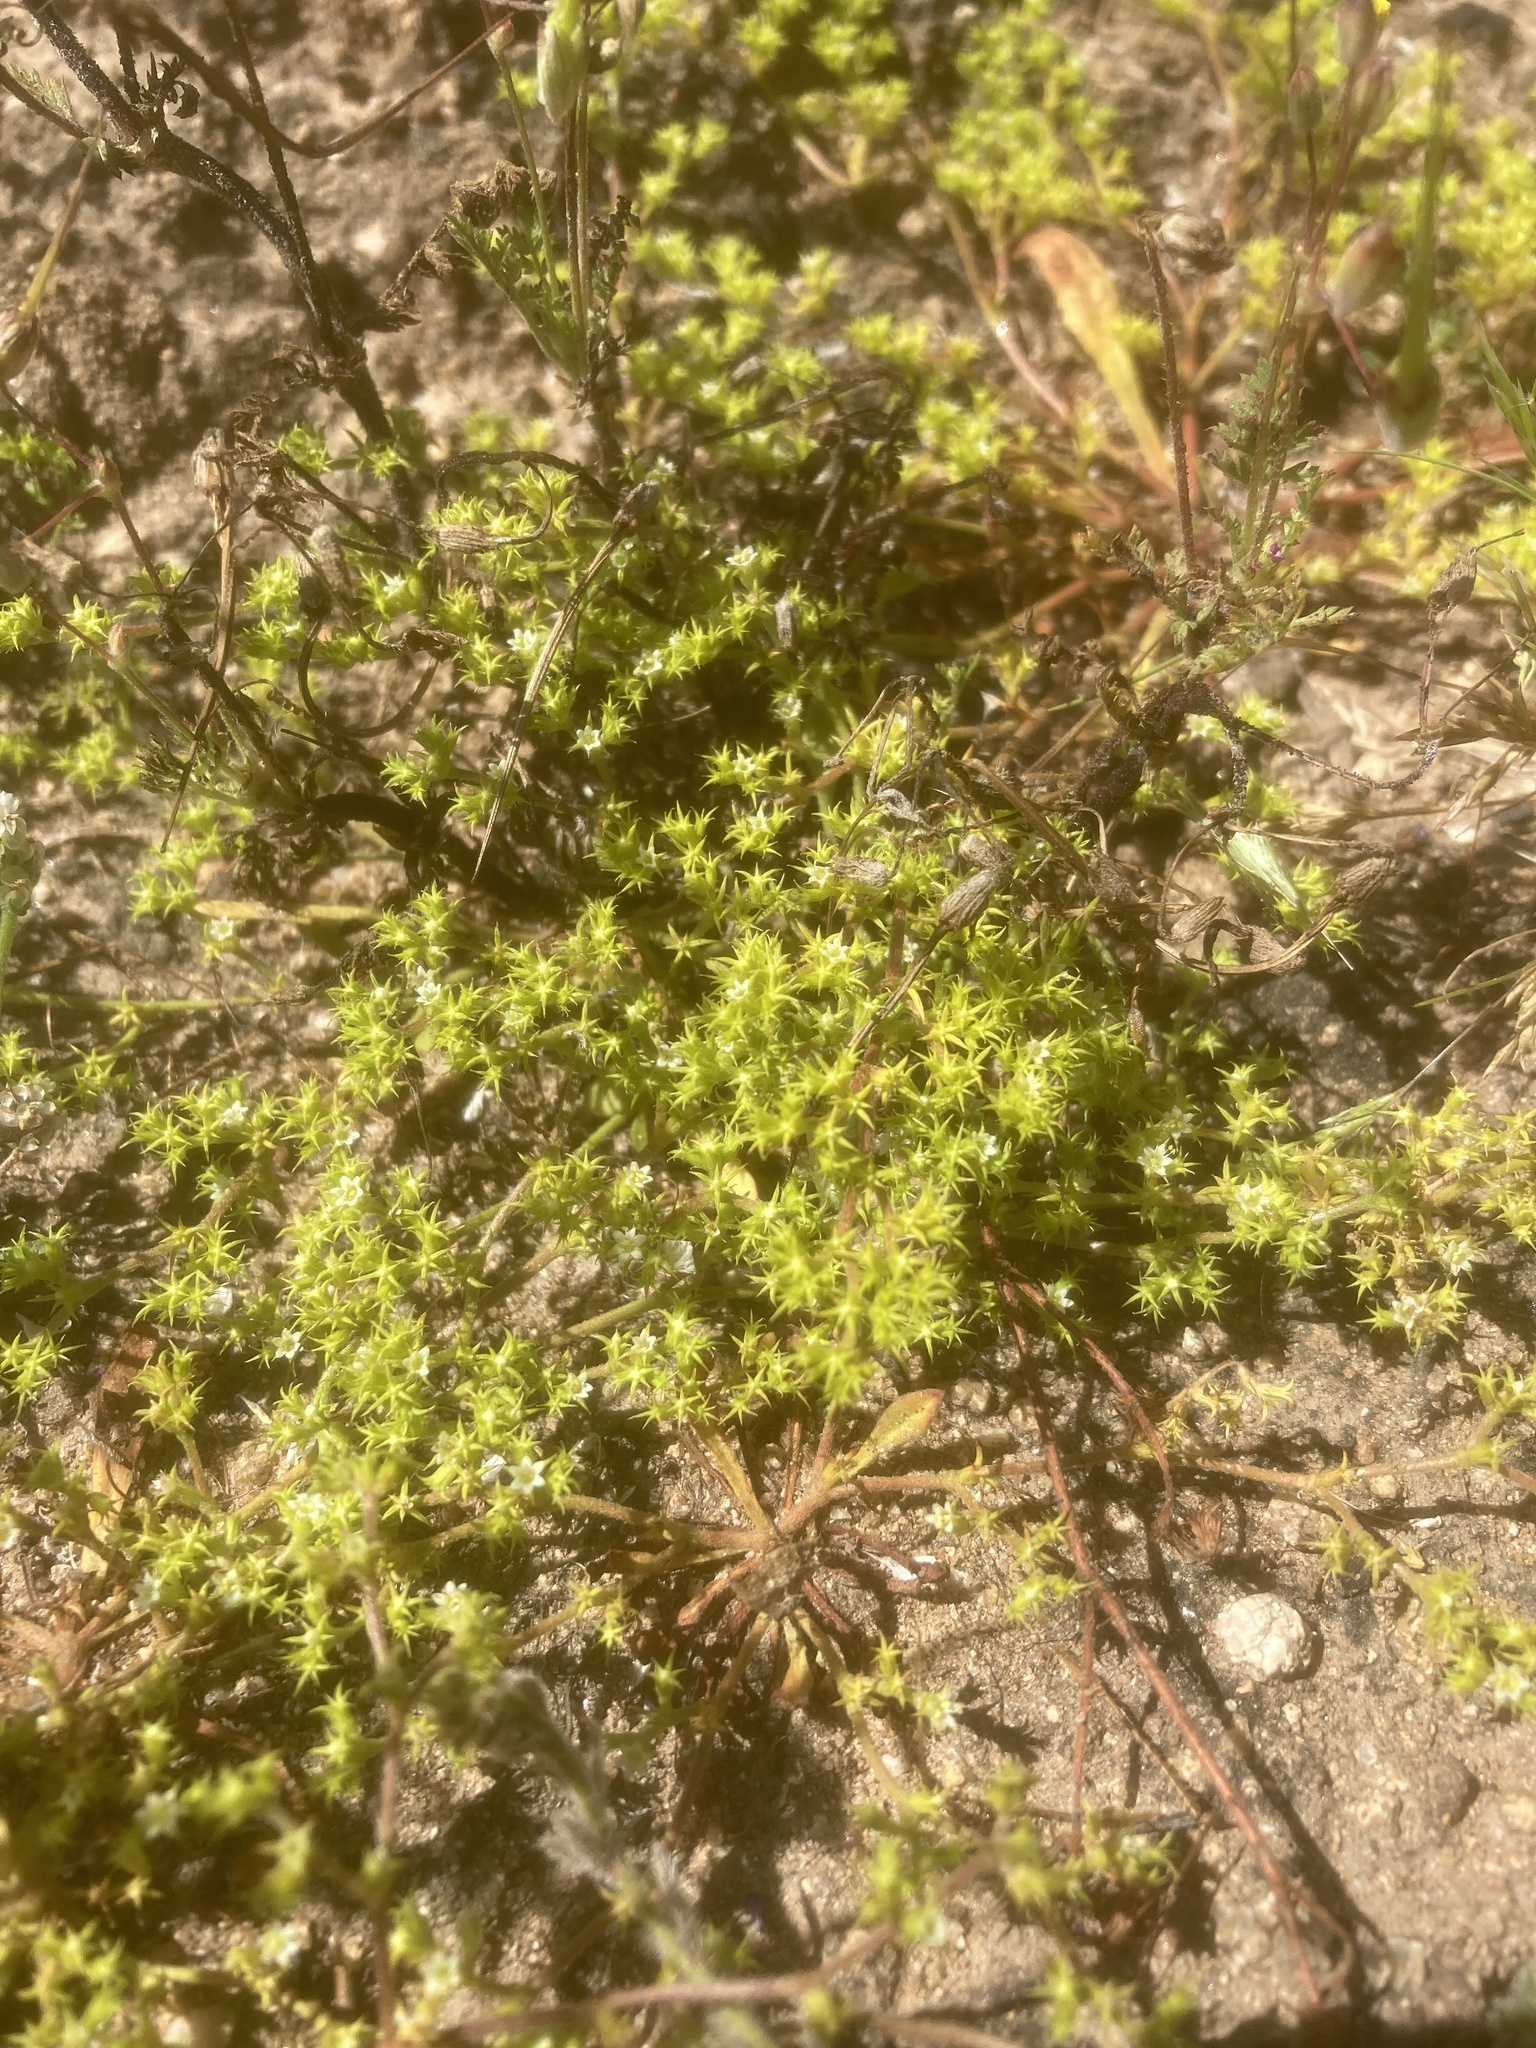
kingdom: Plantae
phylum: Tracheophyta
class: Magnoliopsida
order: Caryophyllales
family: Polygonaceae
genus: Chorizanthe
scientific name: Chorizanthe procumbens
